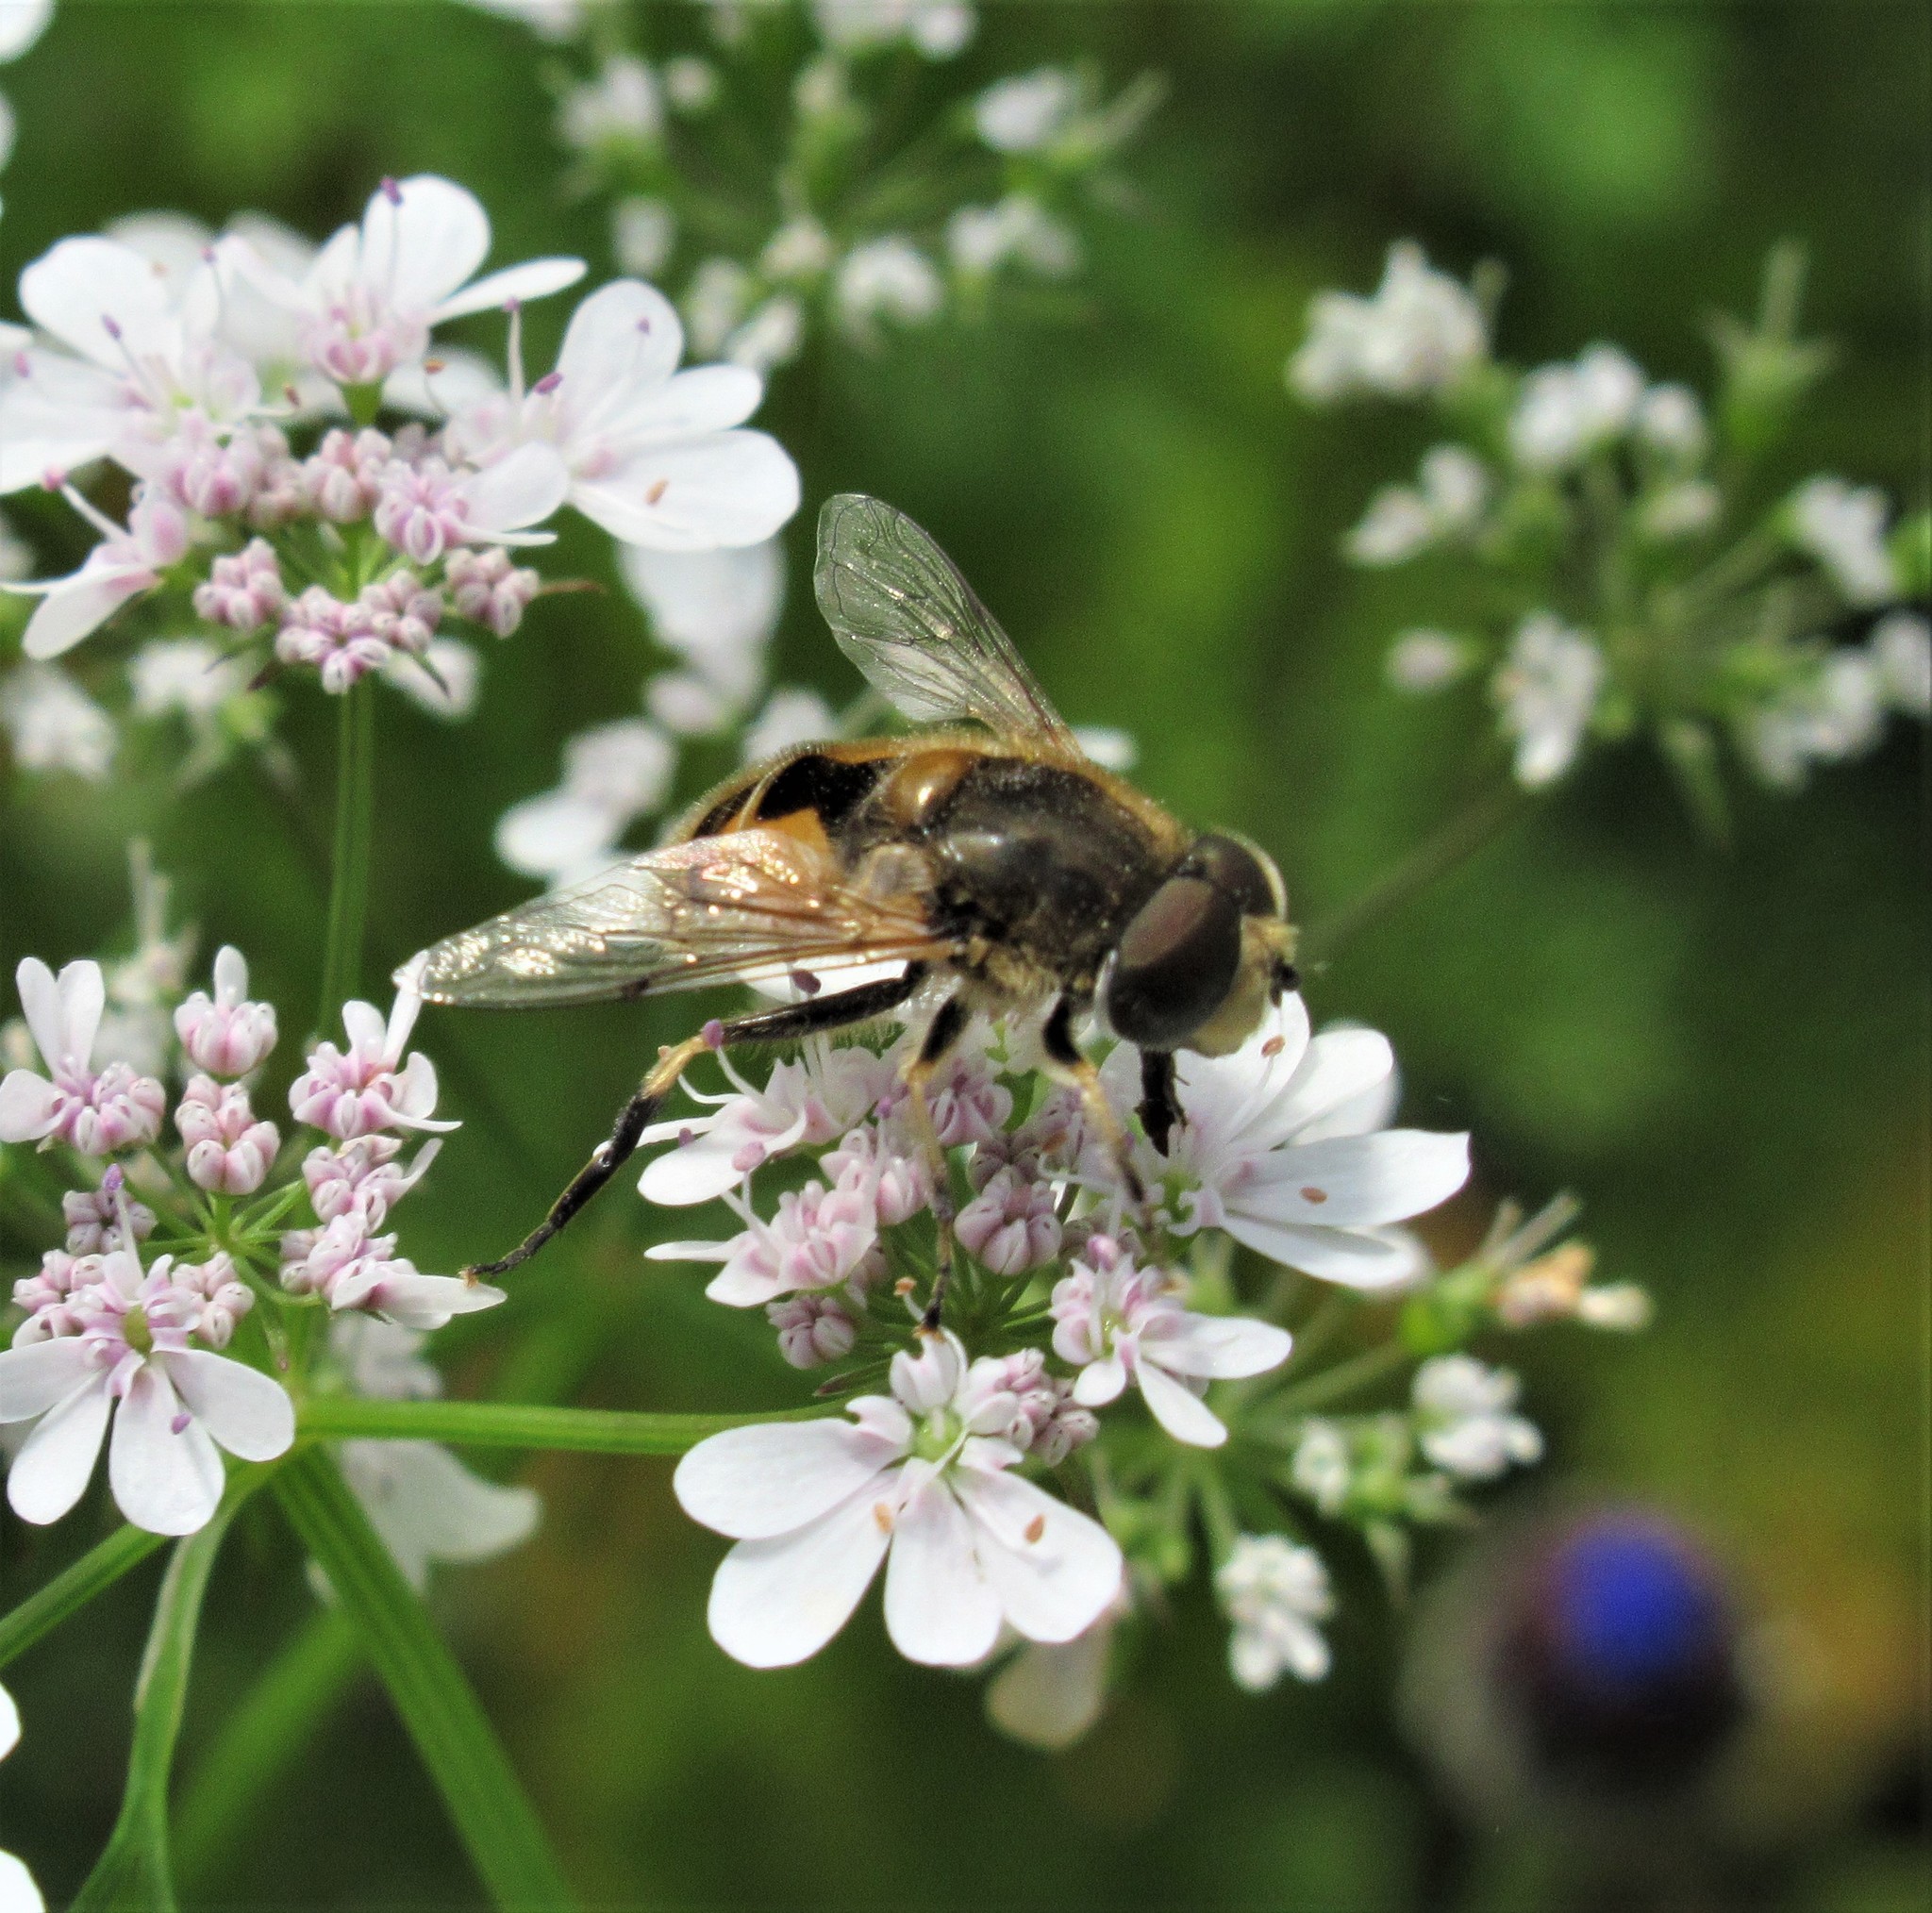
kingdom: Animalia
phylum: Arthropoda
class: Insecta
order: Diptera
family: Syrphidae
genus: Eristalis
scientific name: Eristalis arbustorum
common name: Hover fly
